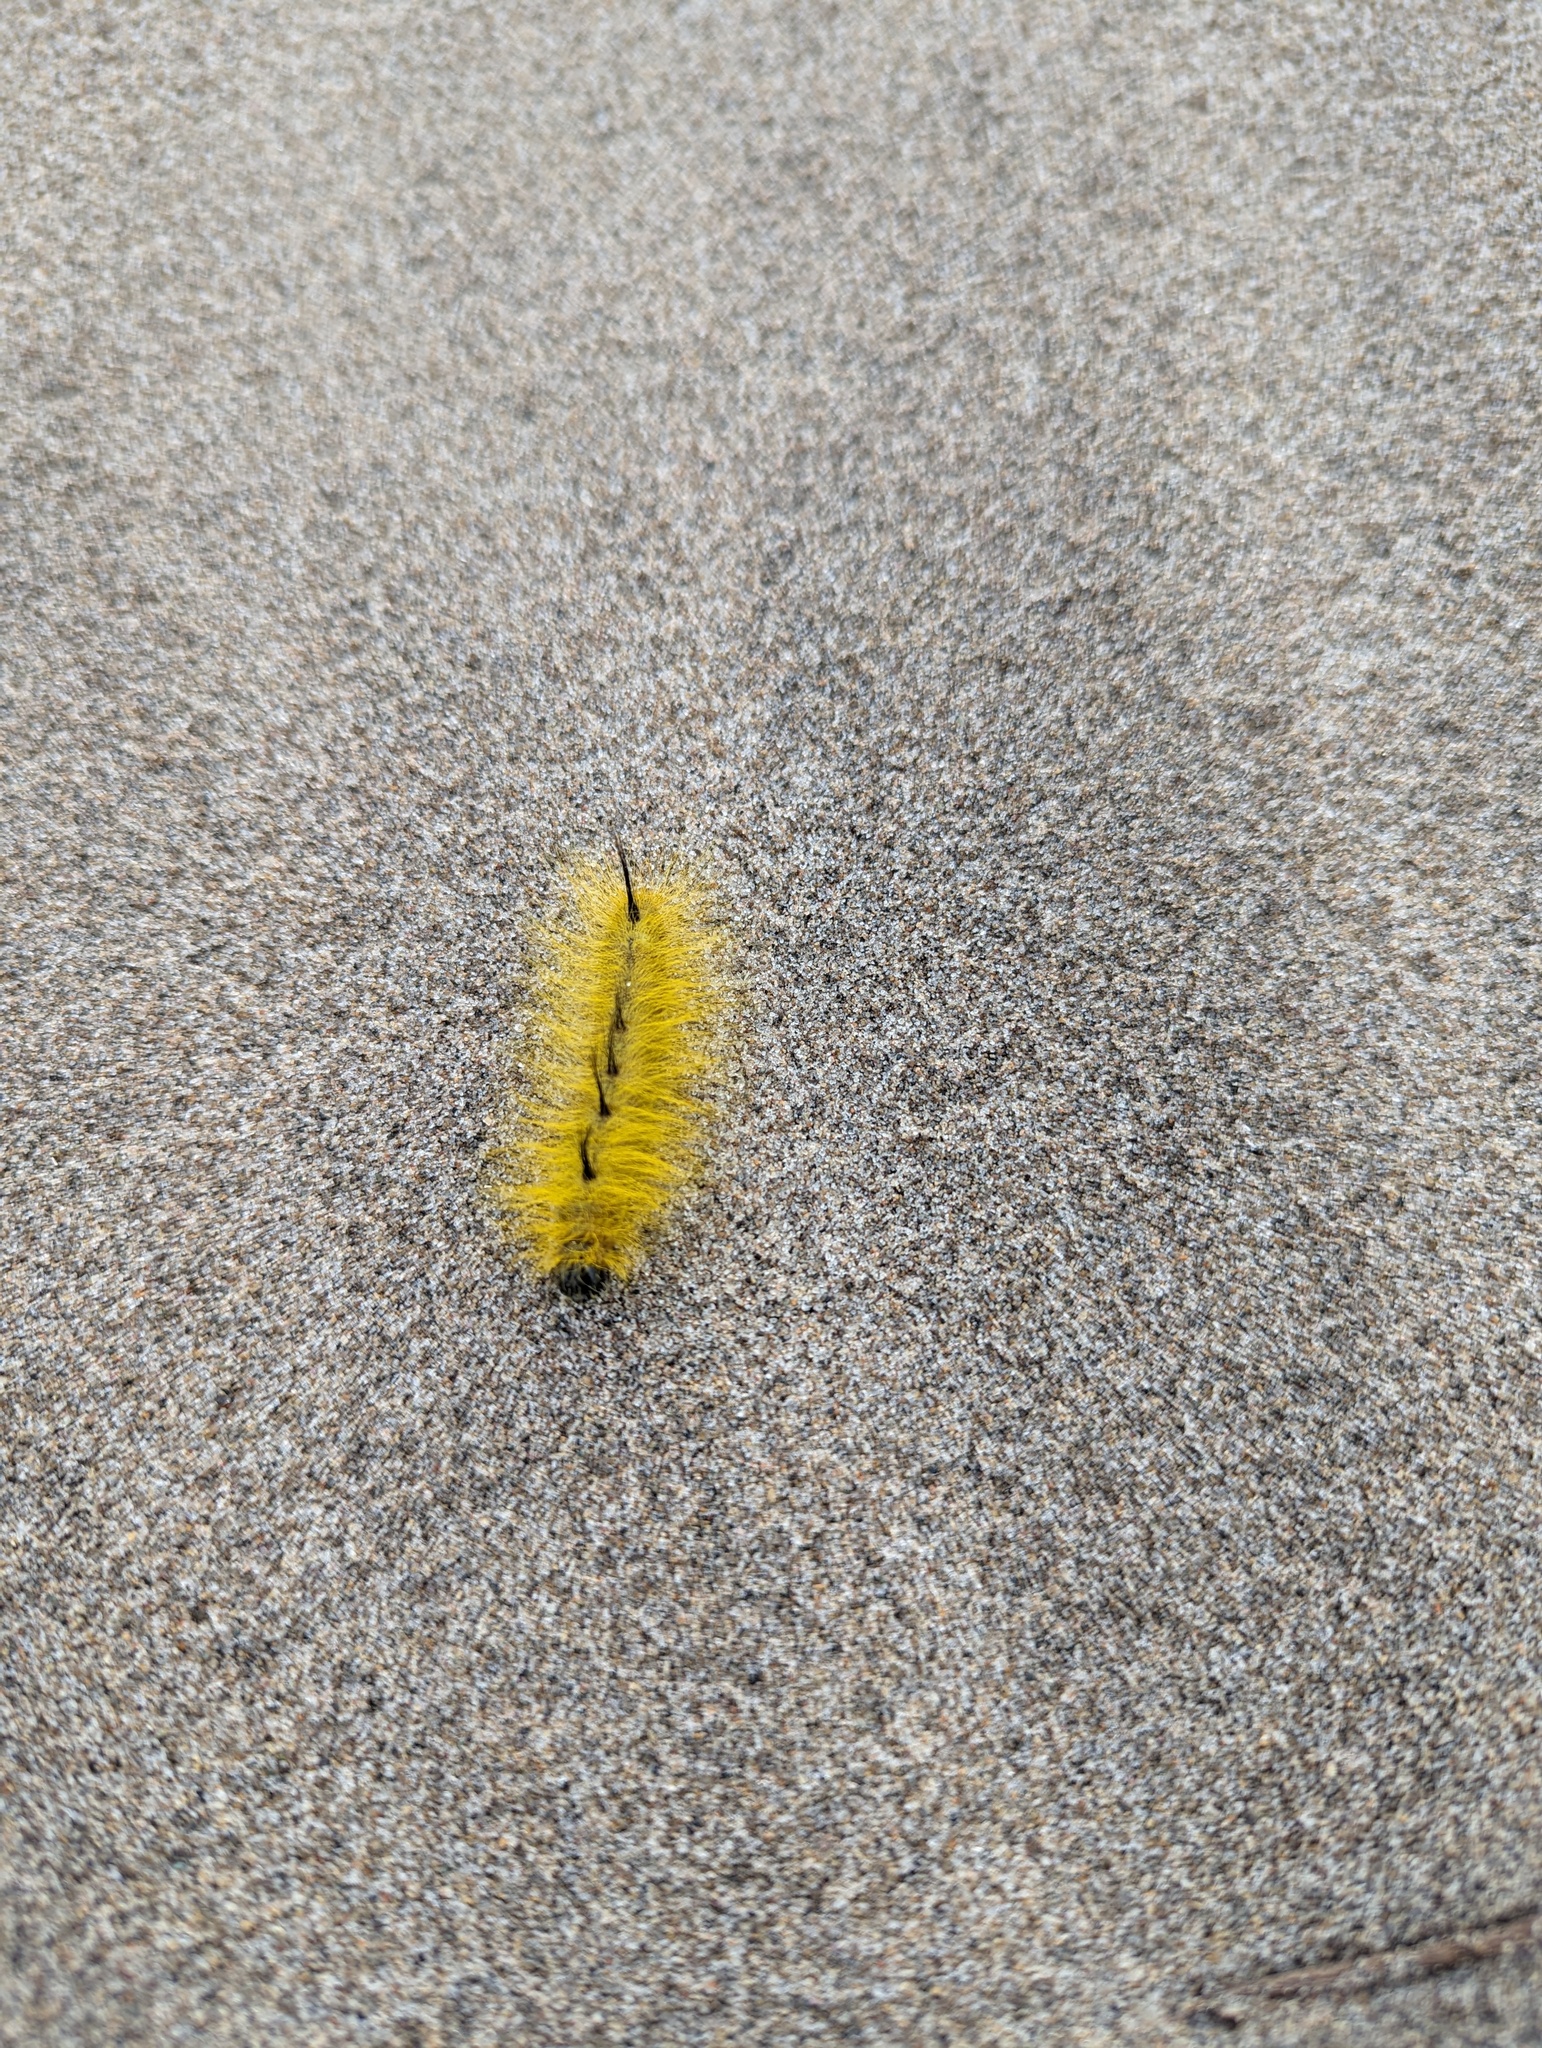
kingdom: Animalia
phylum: Arthropoda
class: Insecta
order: Lepidoptera
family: Noctuidae
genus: Acronicta
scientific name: Acronicta lepusculina
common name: Cottonwood dagger
